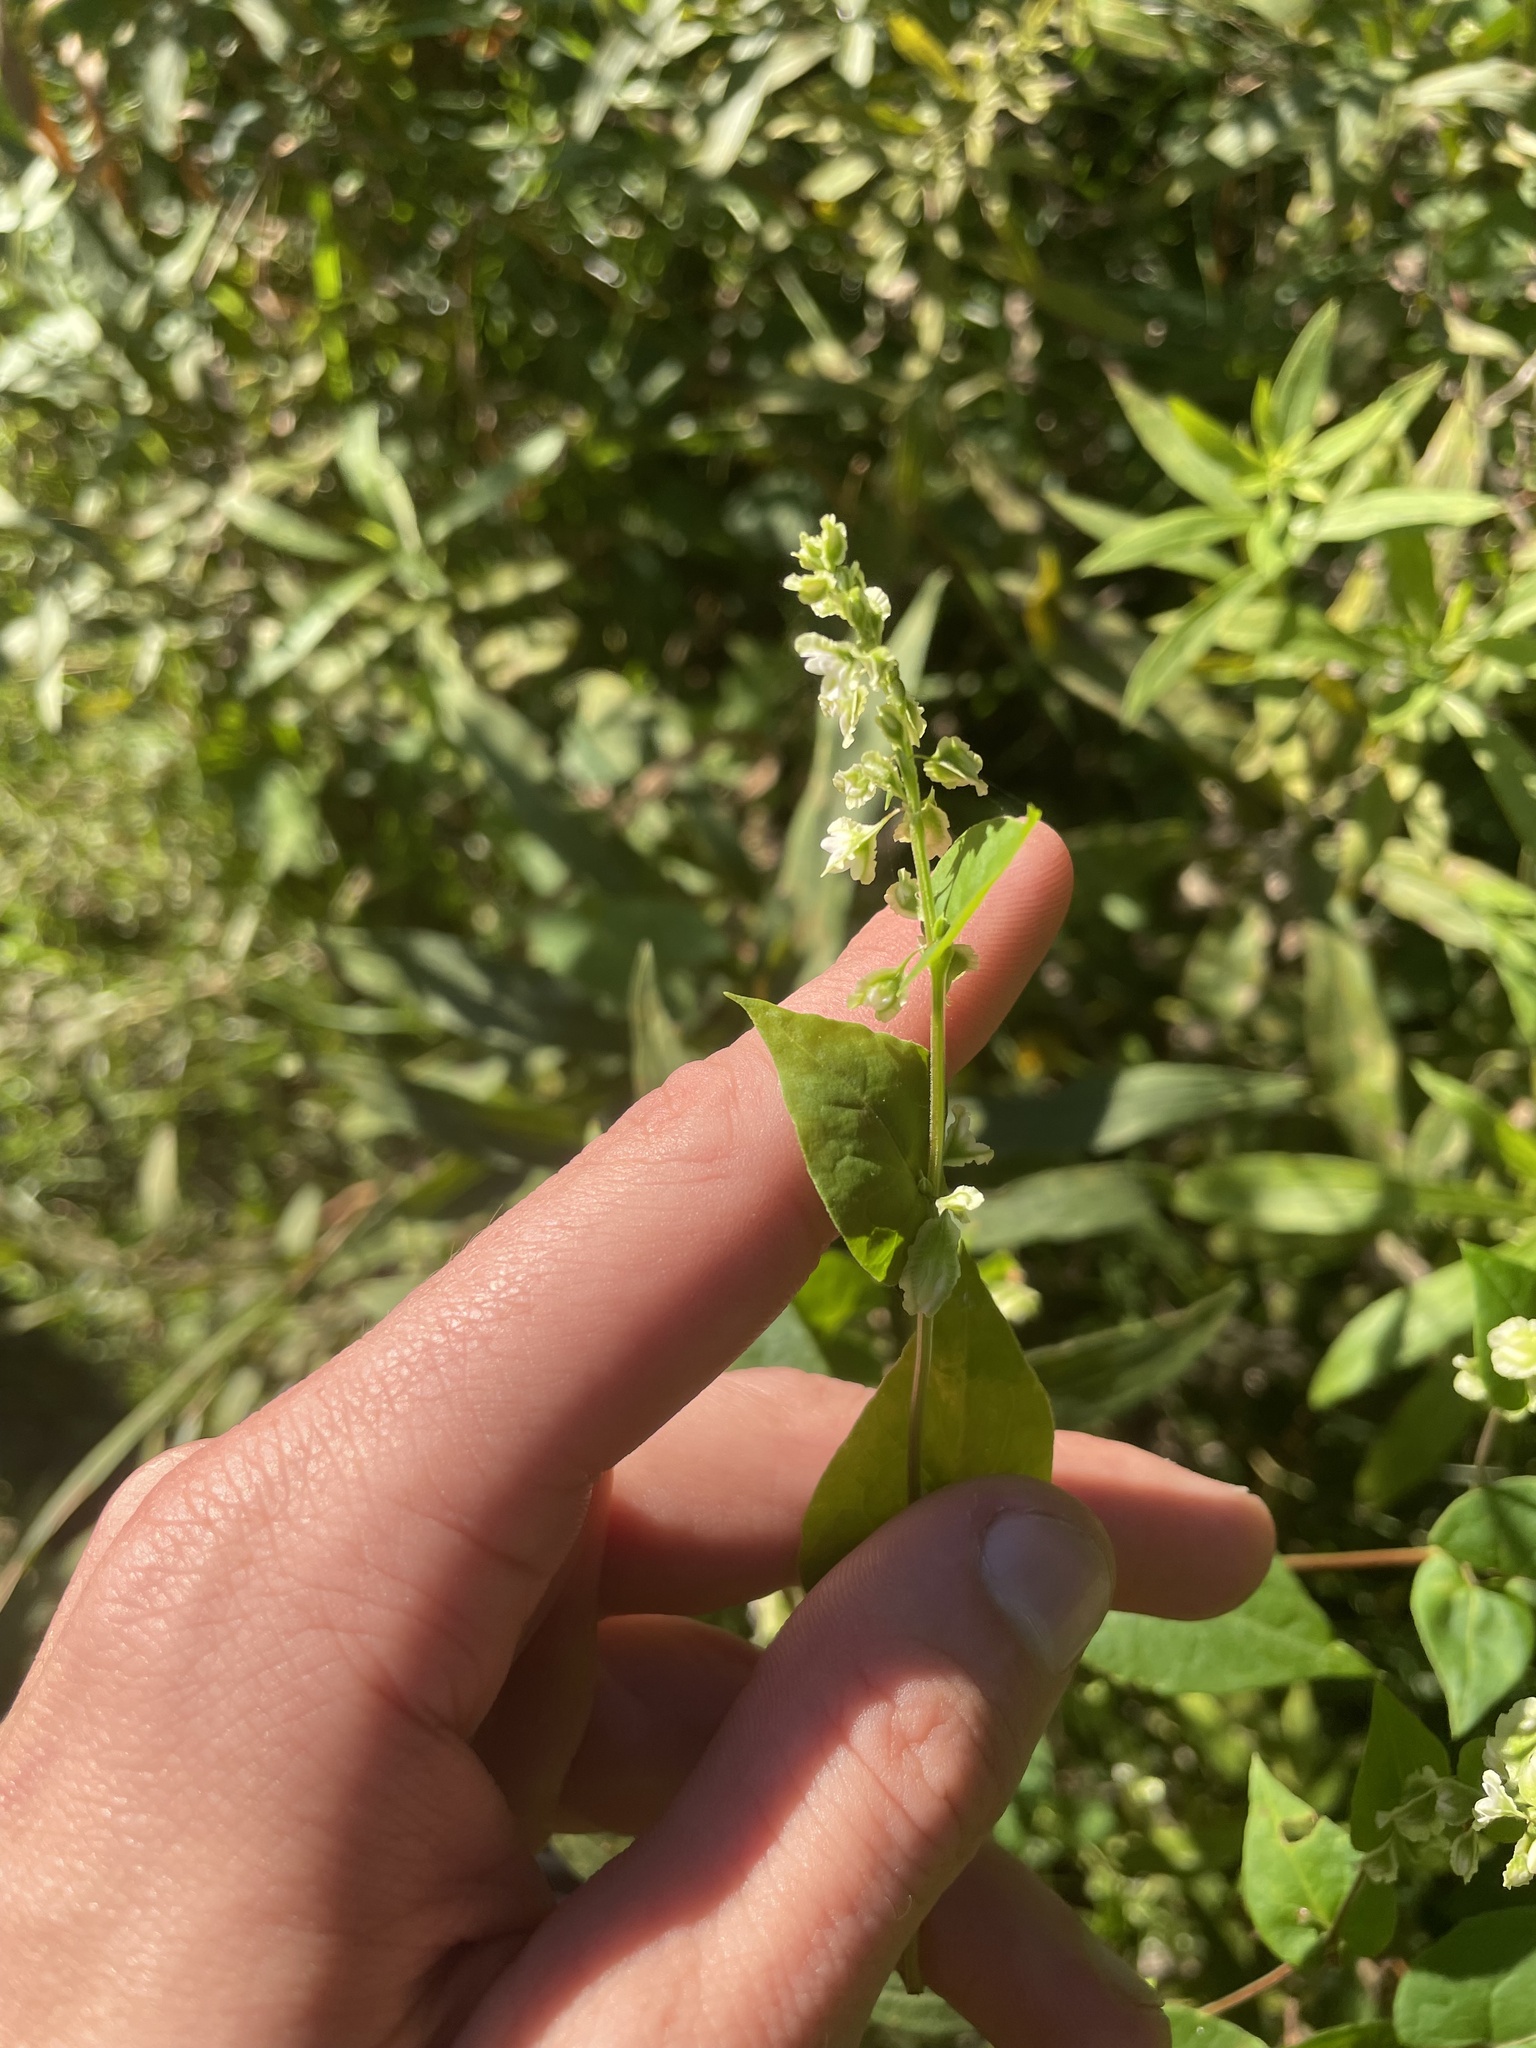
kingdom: Plantae
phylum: Tracheophyta
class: Magnoliopsida
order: Caryophyllales
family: Polygonaceae
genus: Fallopia
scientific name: Fallopia scandens
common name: Climbing false buckwheat
